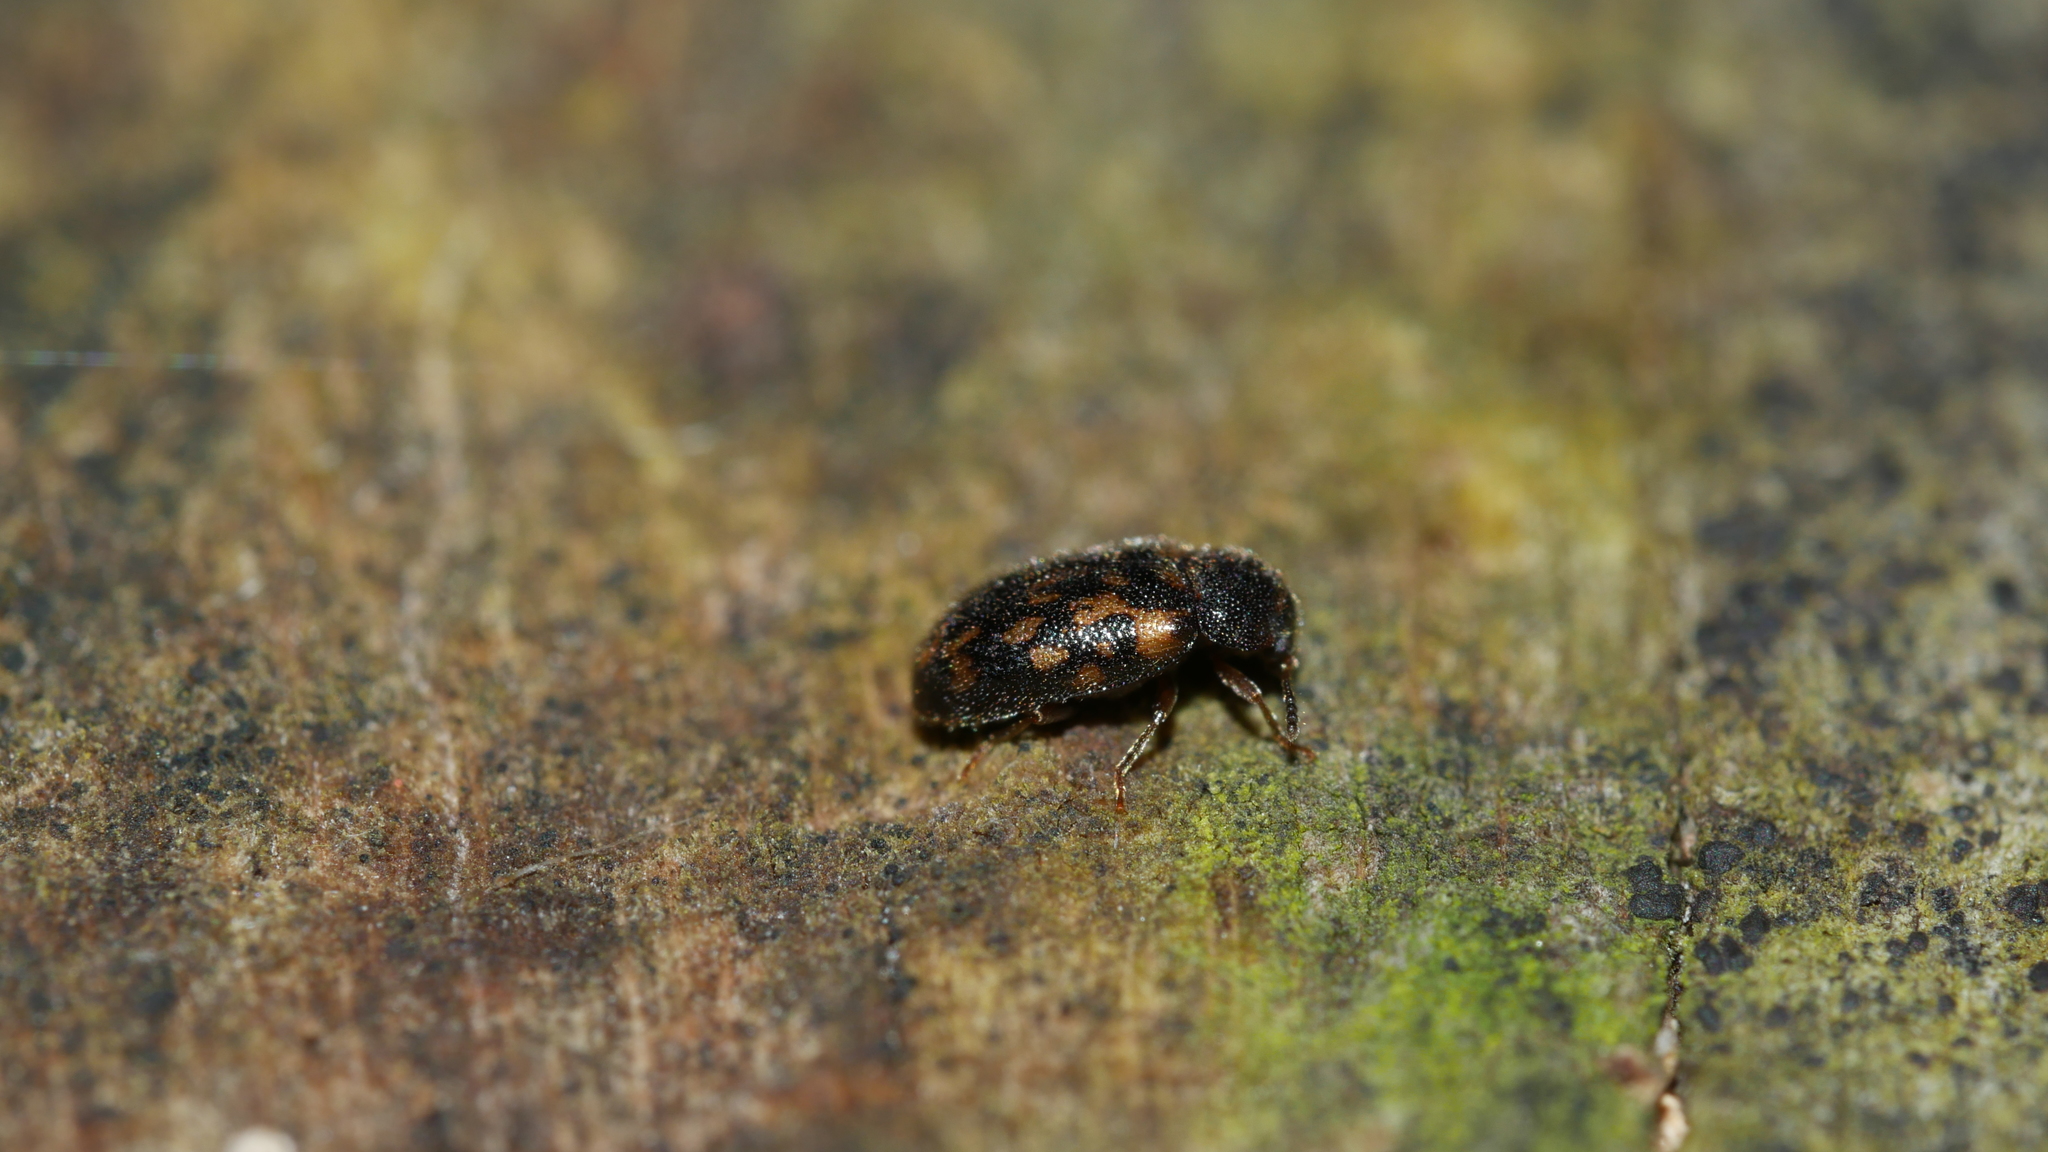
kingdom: Animalia
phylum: Arthropoda
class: Insecta
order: Coleoptera
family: Tetratomidae
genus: Tetratoma
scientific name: Tetratoma tesselata
